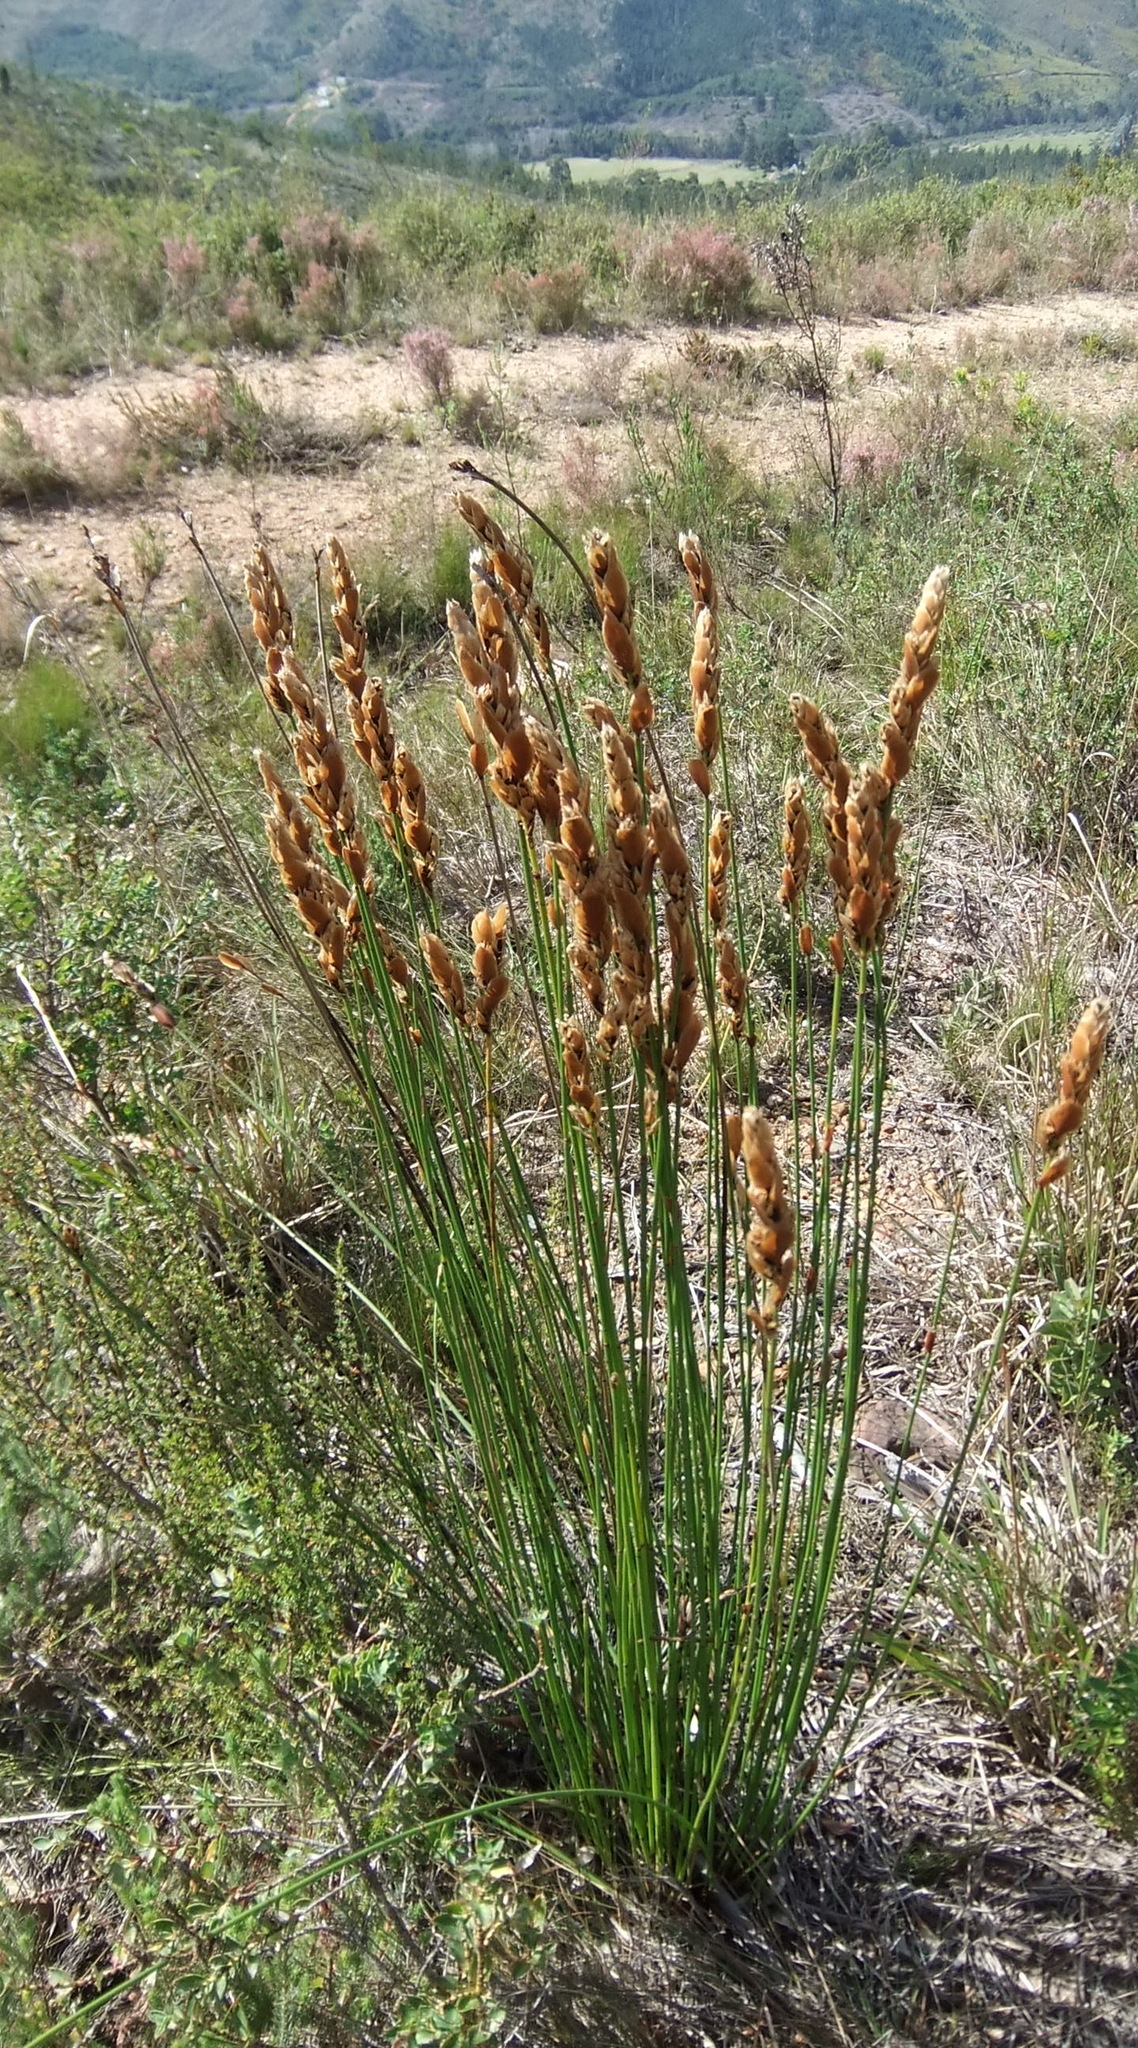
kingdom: Plantae
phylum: Tracheophyta
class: Liliopsida
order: Poales
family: Restionaceae
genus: Elegia
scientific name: Elegia equisetacea
